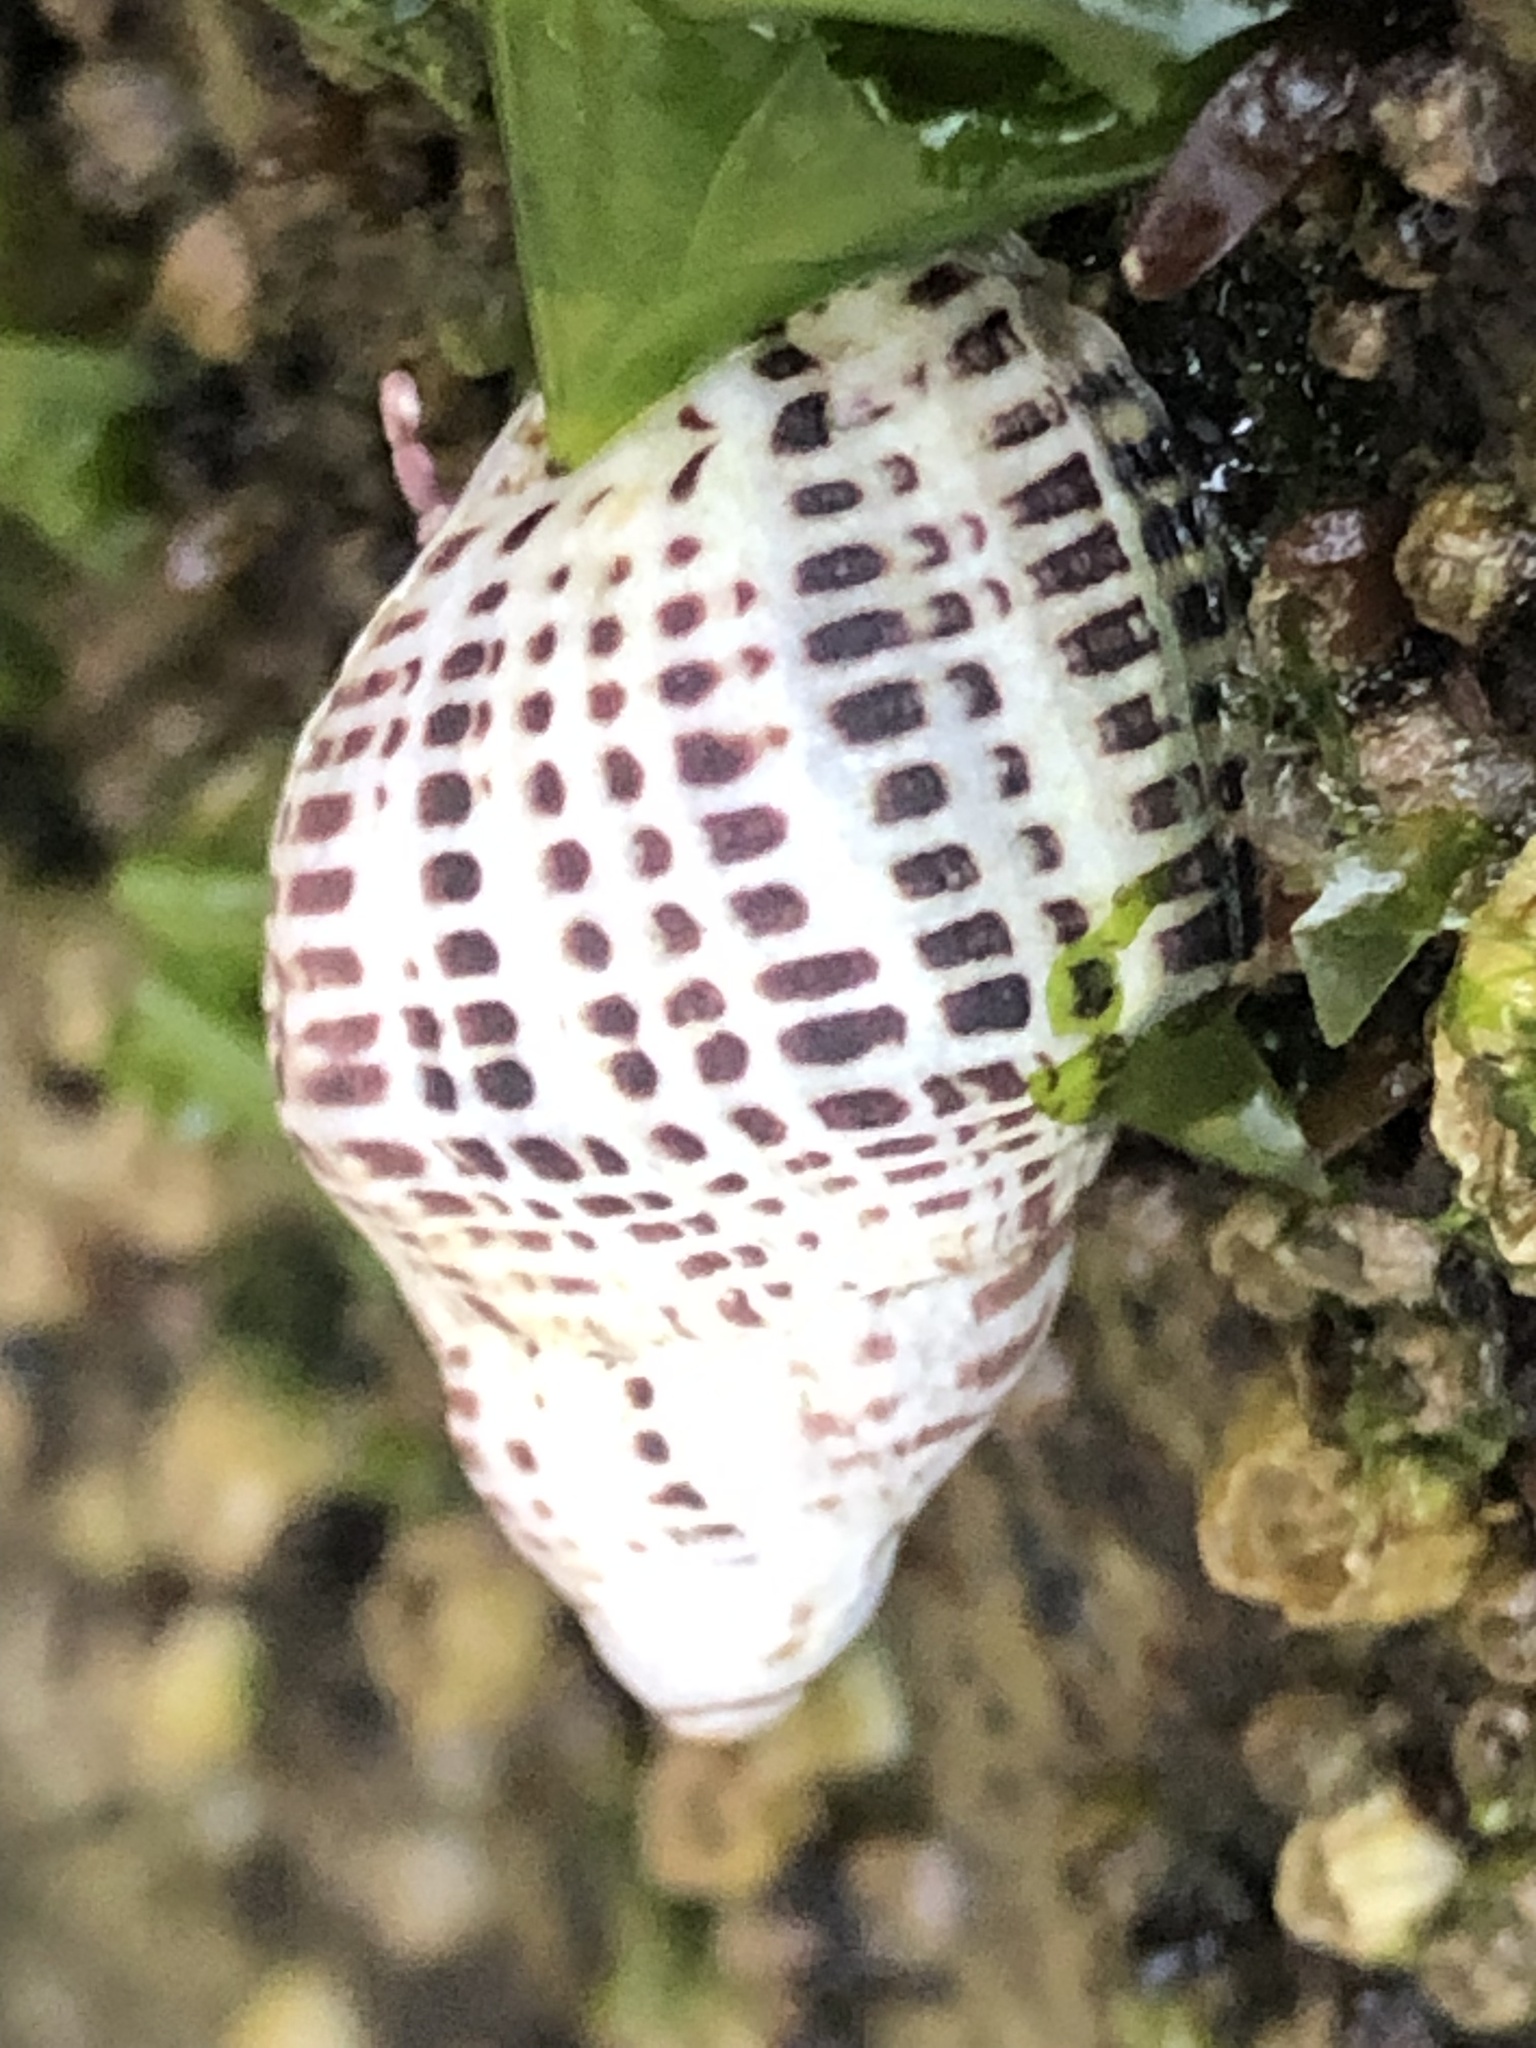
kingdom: Animalia
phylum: Mollusca
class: Gastropoda
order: Neogastropoda
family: Muricidae
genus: Acanthinucella
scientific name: Acanthinucella punctulata
